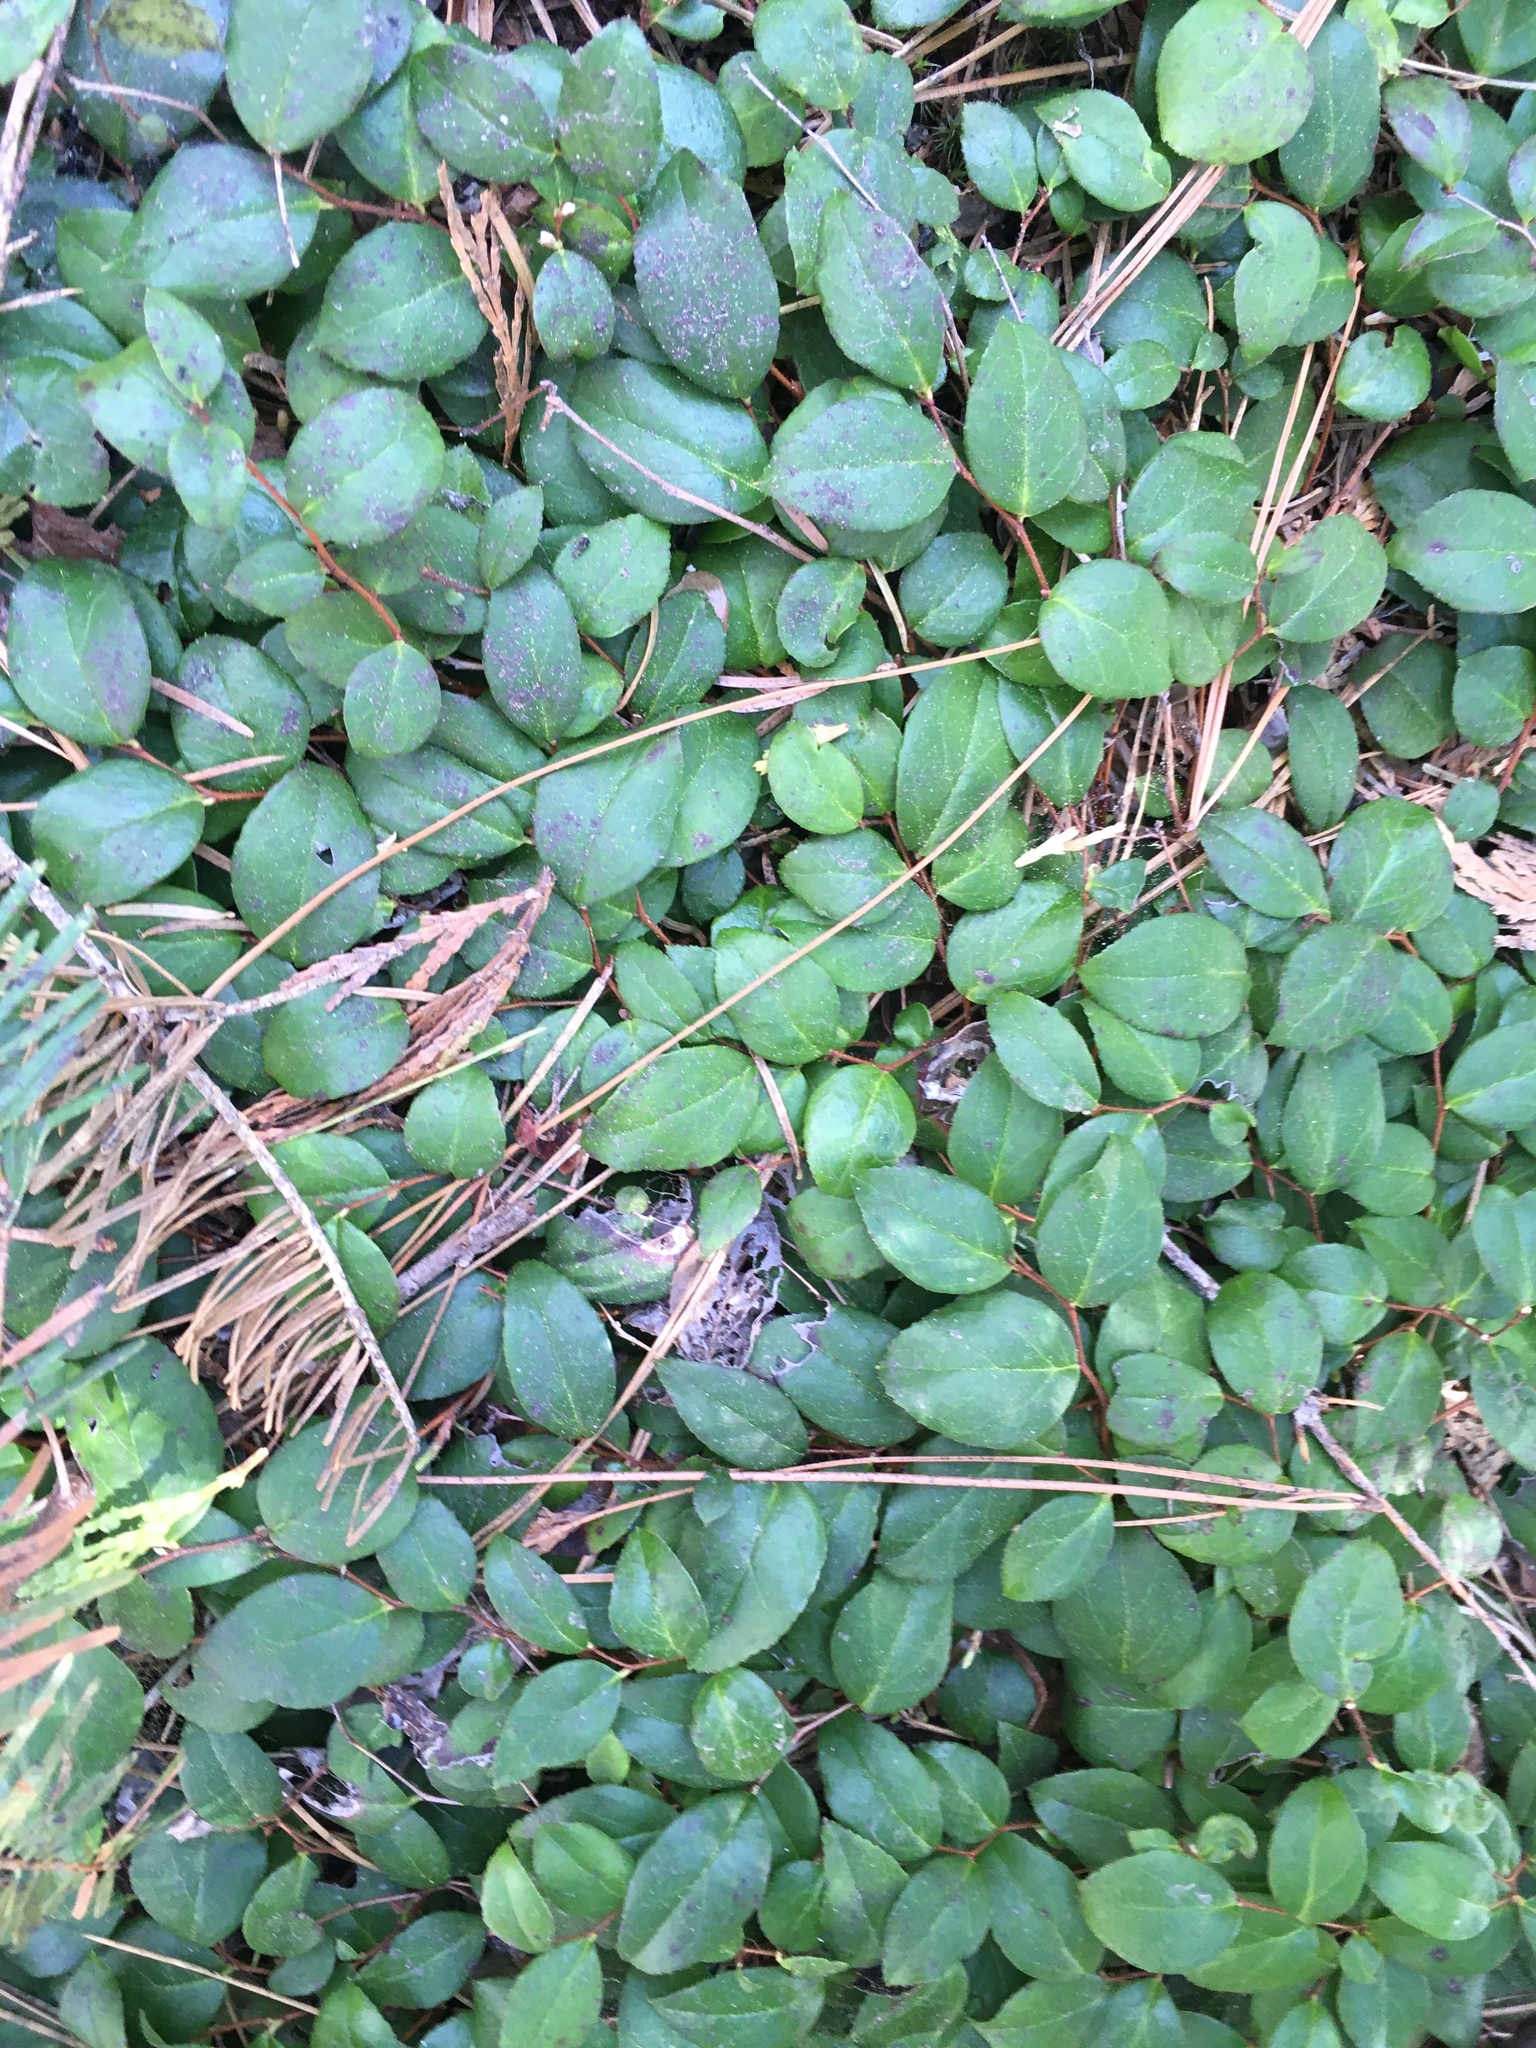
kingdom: Plantae
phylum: Tracheophyta
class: Magnoliopsida
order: Ericales
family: Ericaceae
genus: Gaultheria
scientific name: Gaultheria ovatifolia
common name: Oregon wintergreen
